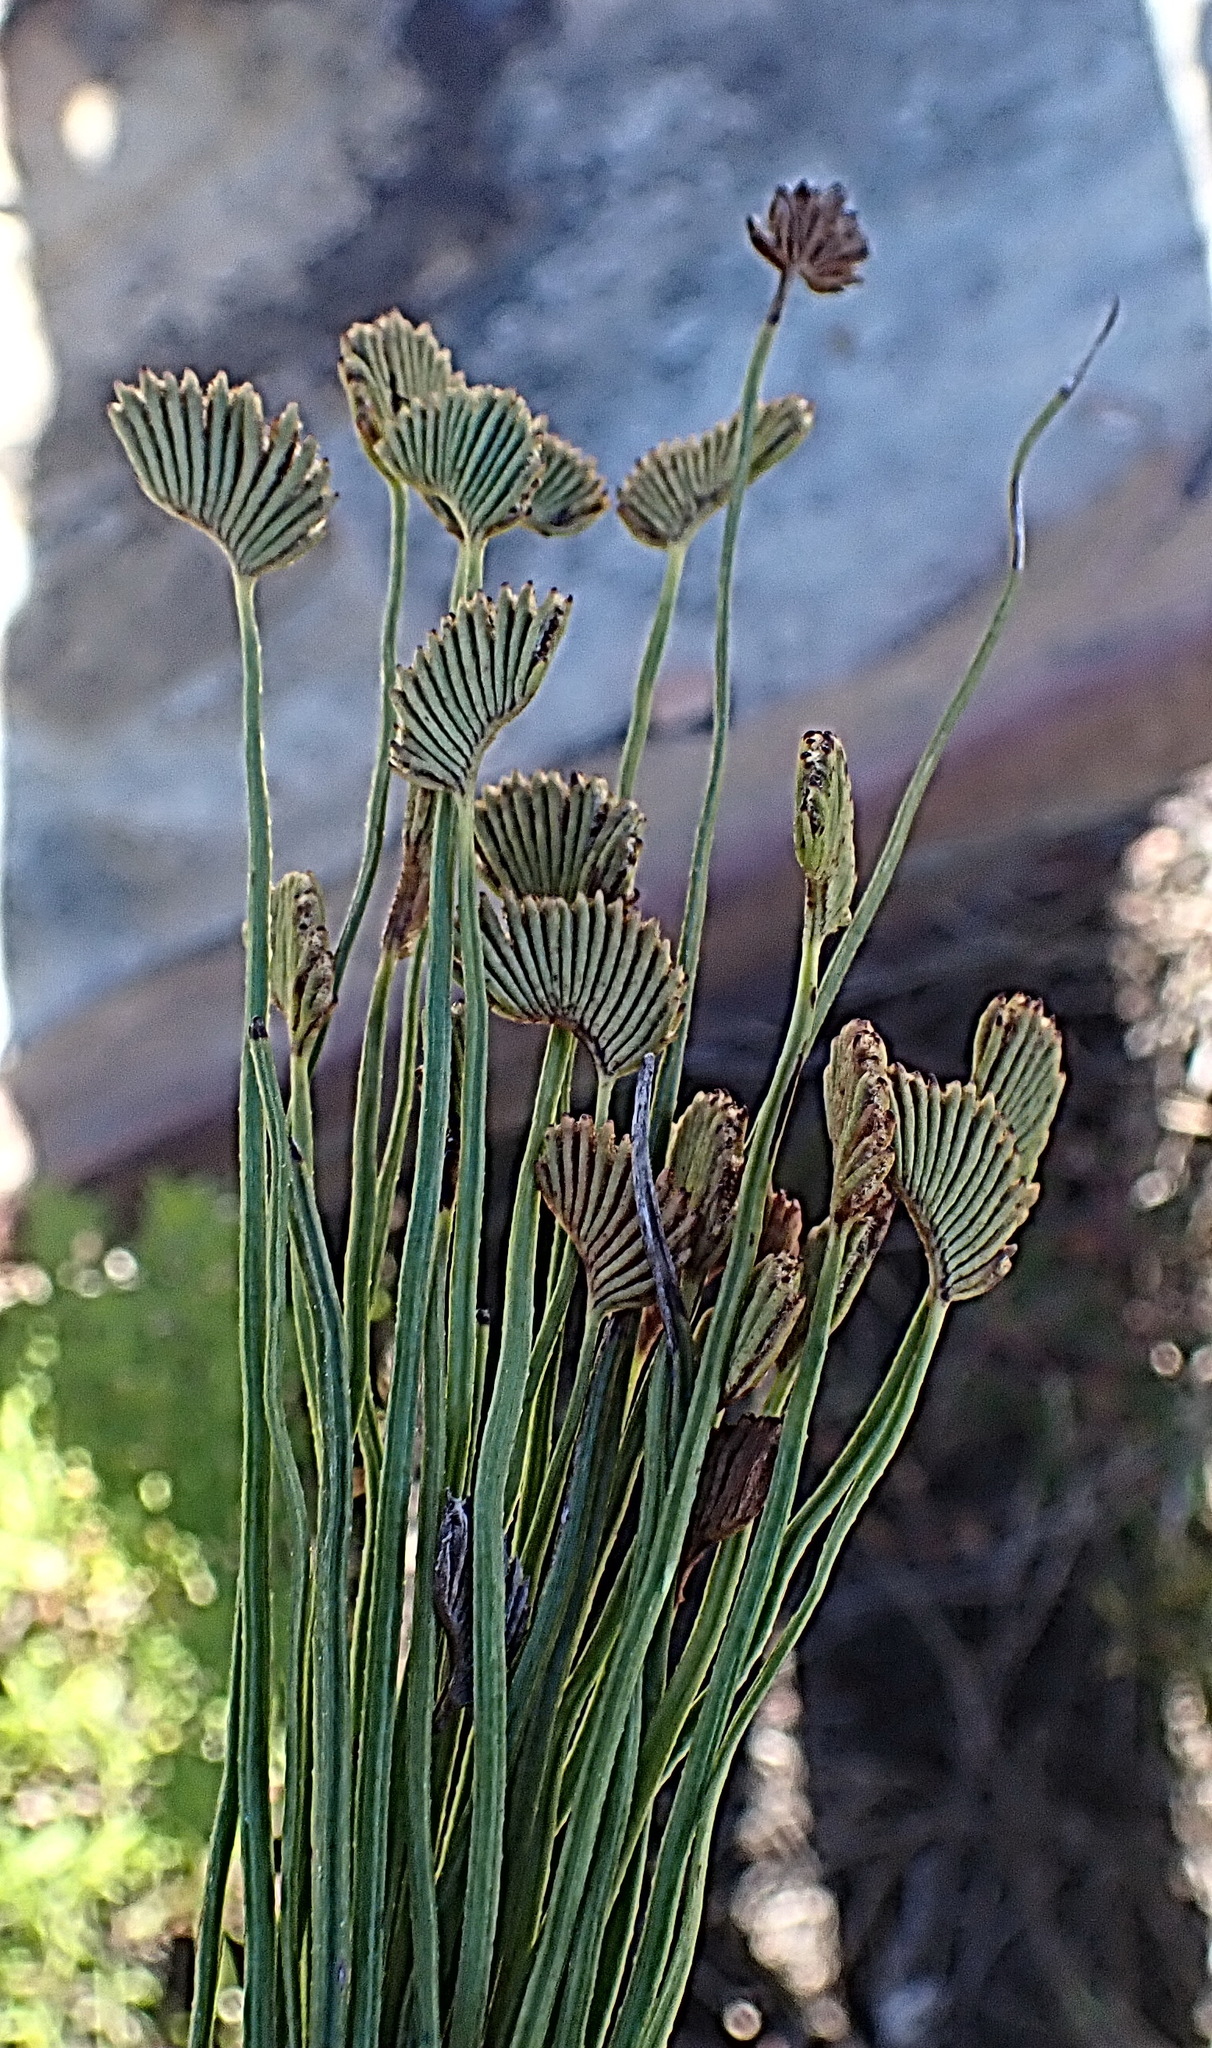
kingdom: Plantae
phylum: Tracheophyta
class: Polypodiopsida
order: Schizaeales
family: Schizaeaceae
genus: Schizaea
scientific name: Schizaea pectinata
